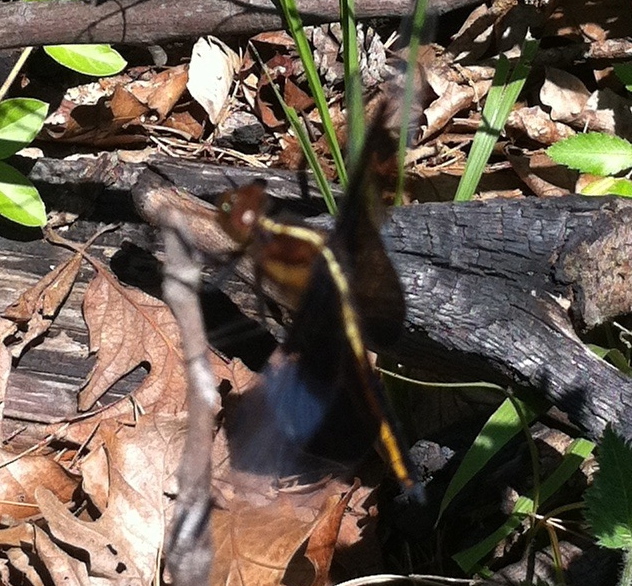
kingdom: Animalia
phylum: Arthropoda
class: Insecta
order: Odonata
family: Libellulidae
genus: Libellula
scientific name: Libellula luctuosa
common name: Widow skimmer
